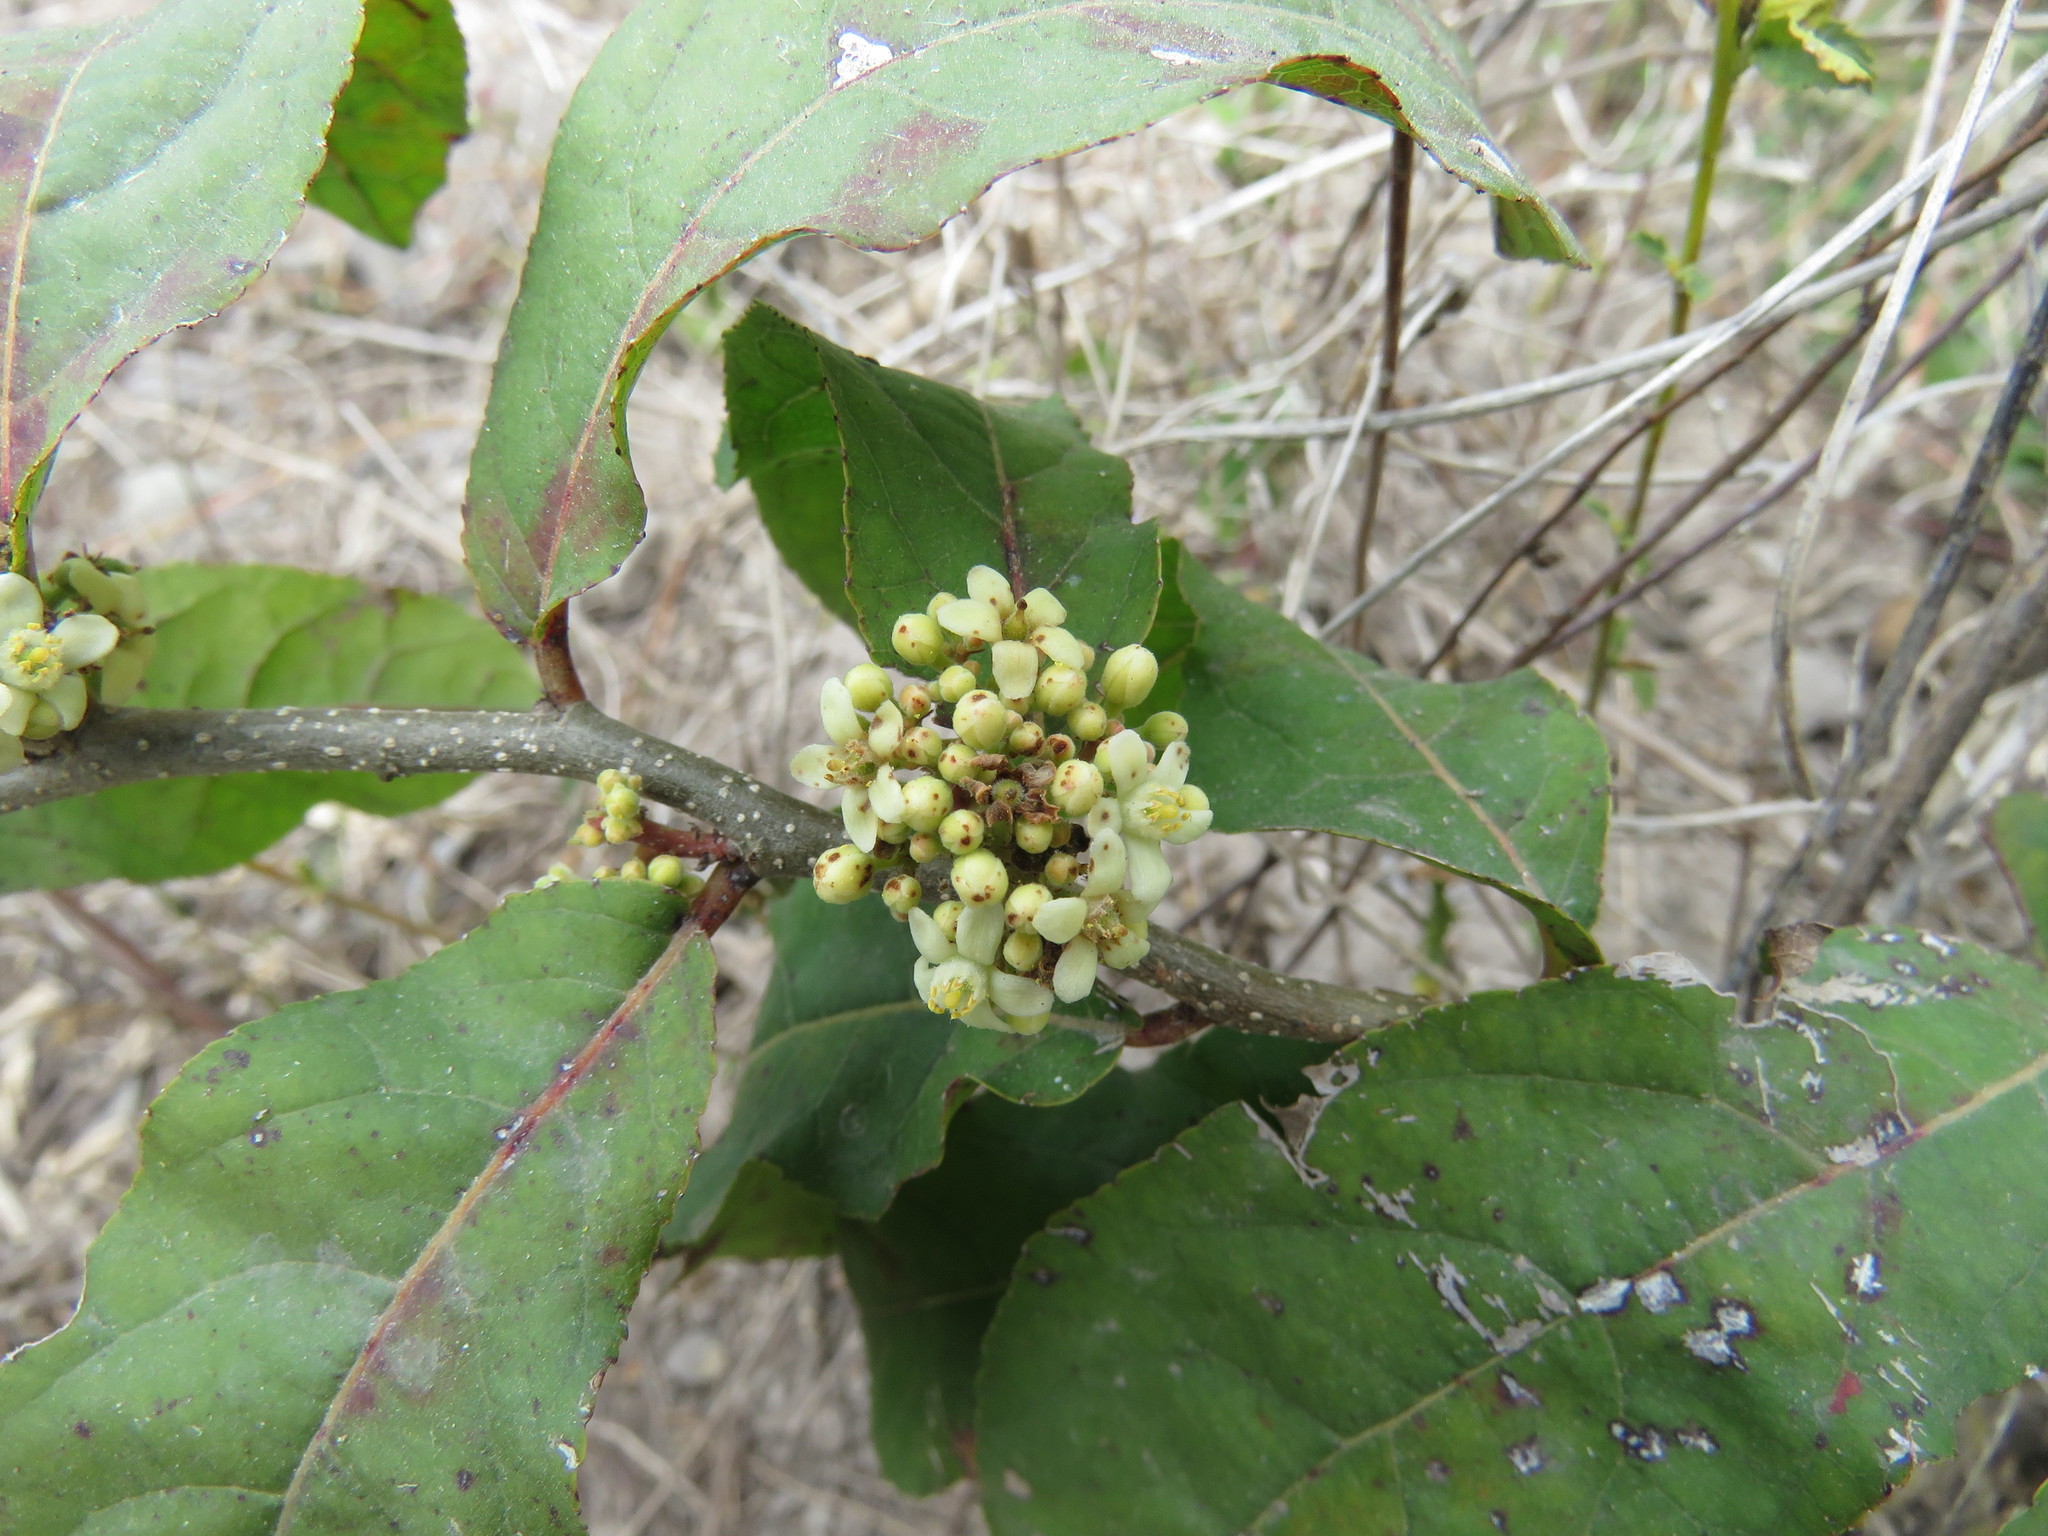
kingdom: Plantae
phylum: Tracheophyta
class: Magnoliopsida
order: Malpighiales
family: Salicaceae
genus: Casearia
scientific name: Casearia corymbosa
